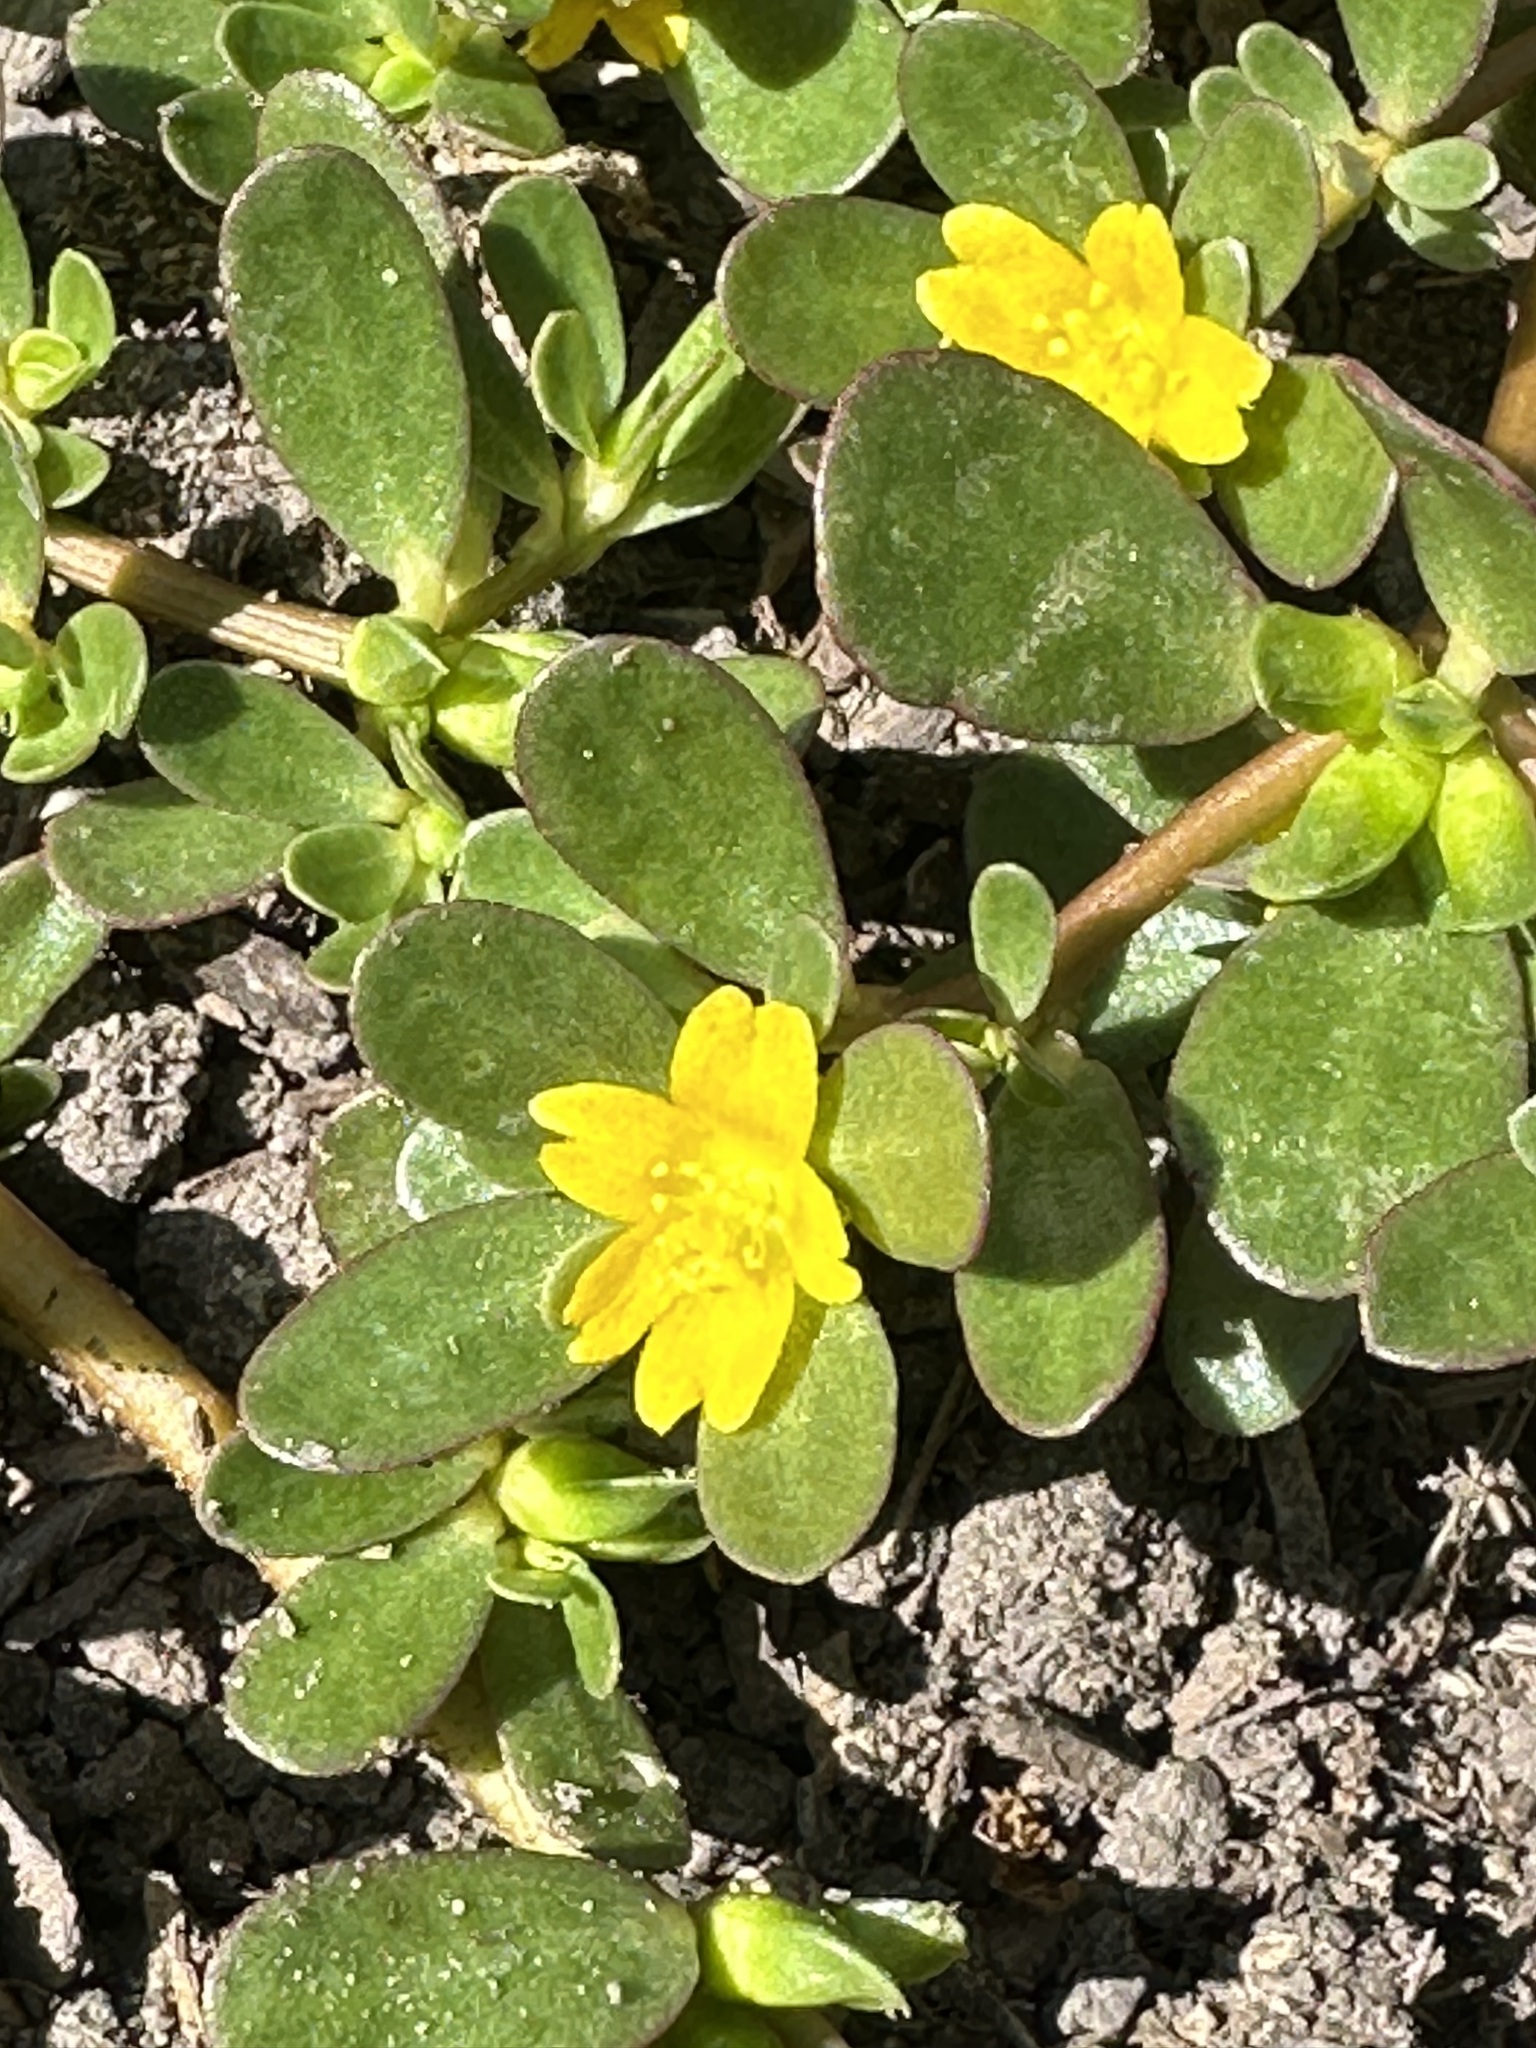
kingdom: Plantae
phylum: Tracheophyta
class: Magnoliopsida
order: Caryophyllales
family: Portulacaceae
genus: Portulaca
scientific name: Portulaca oleracea
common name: Common purslane
